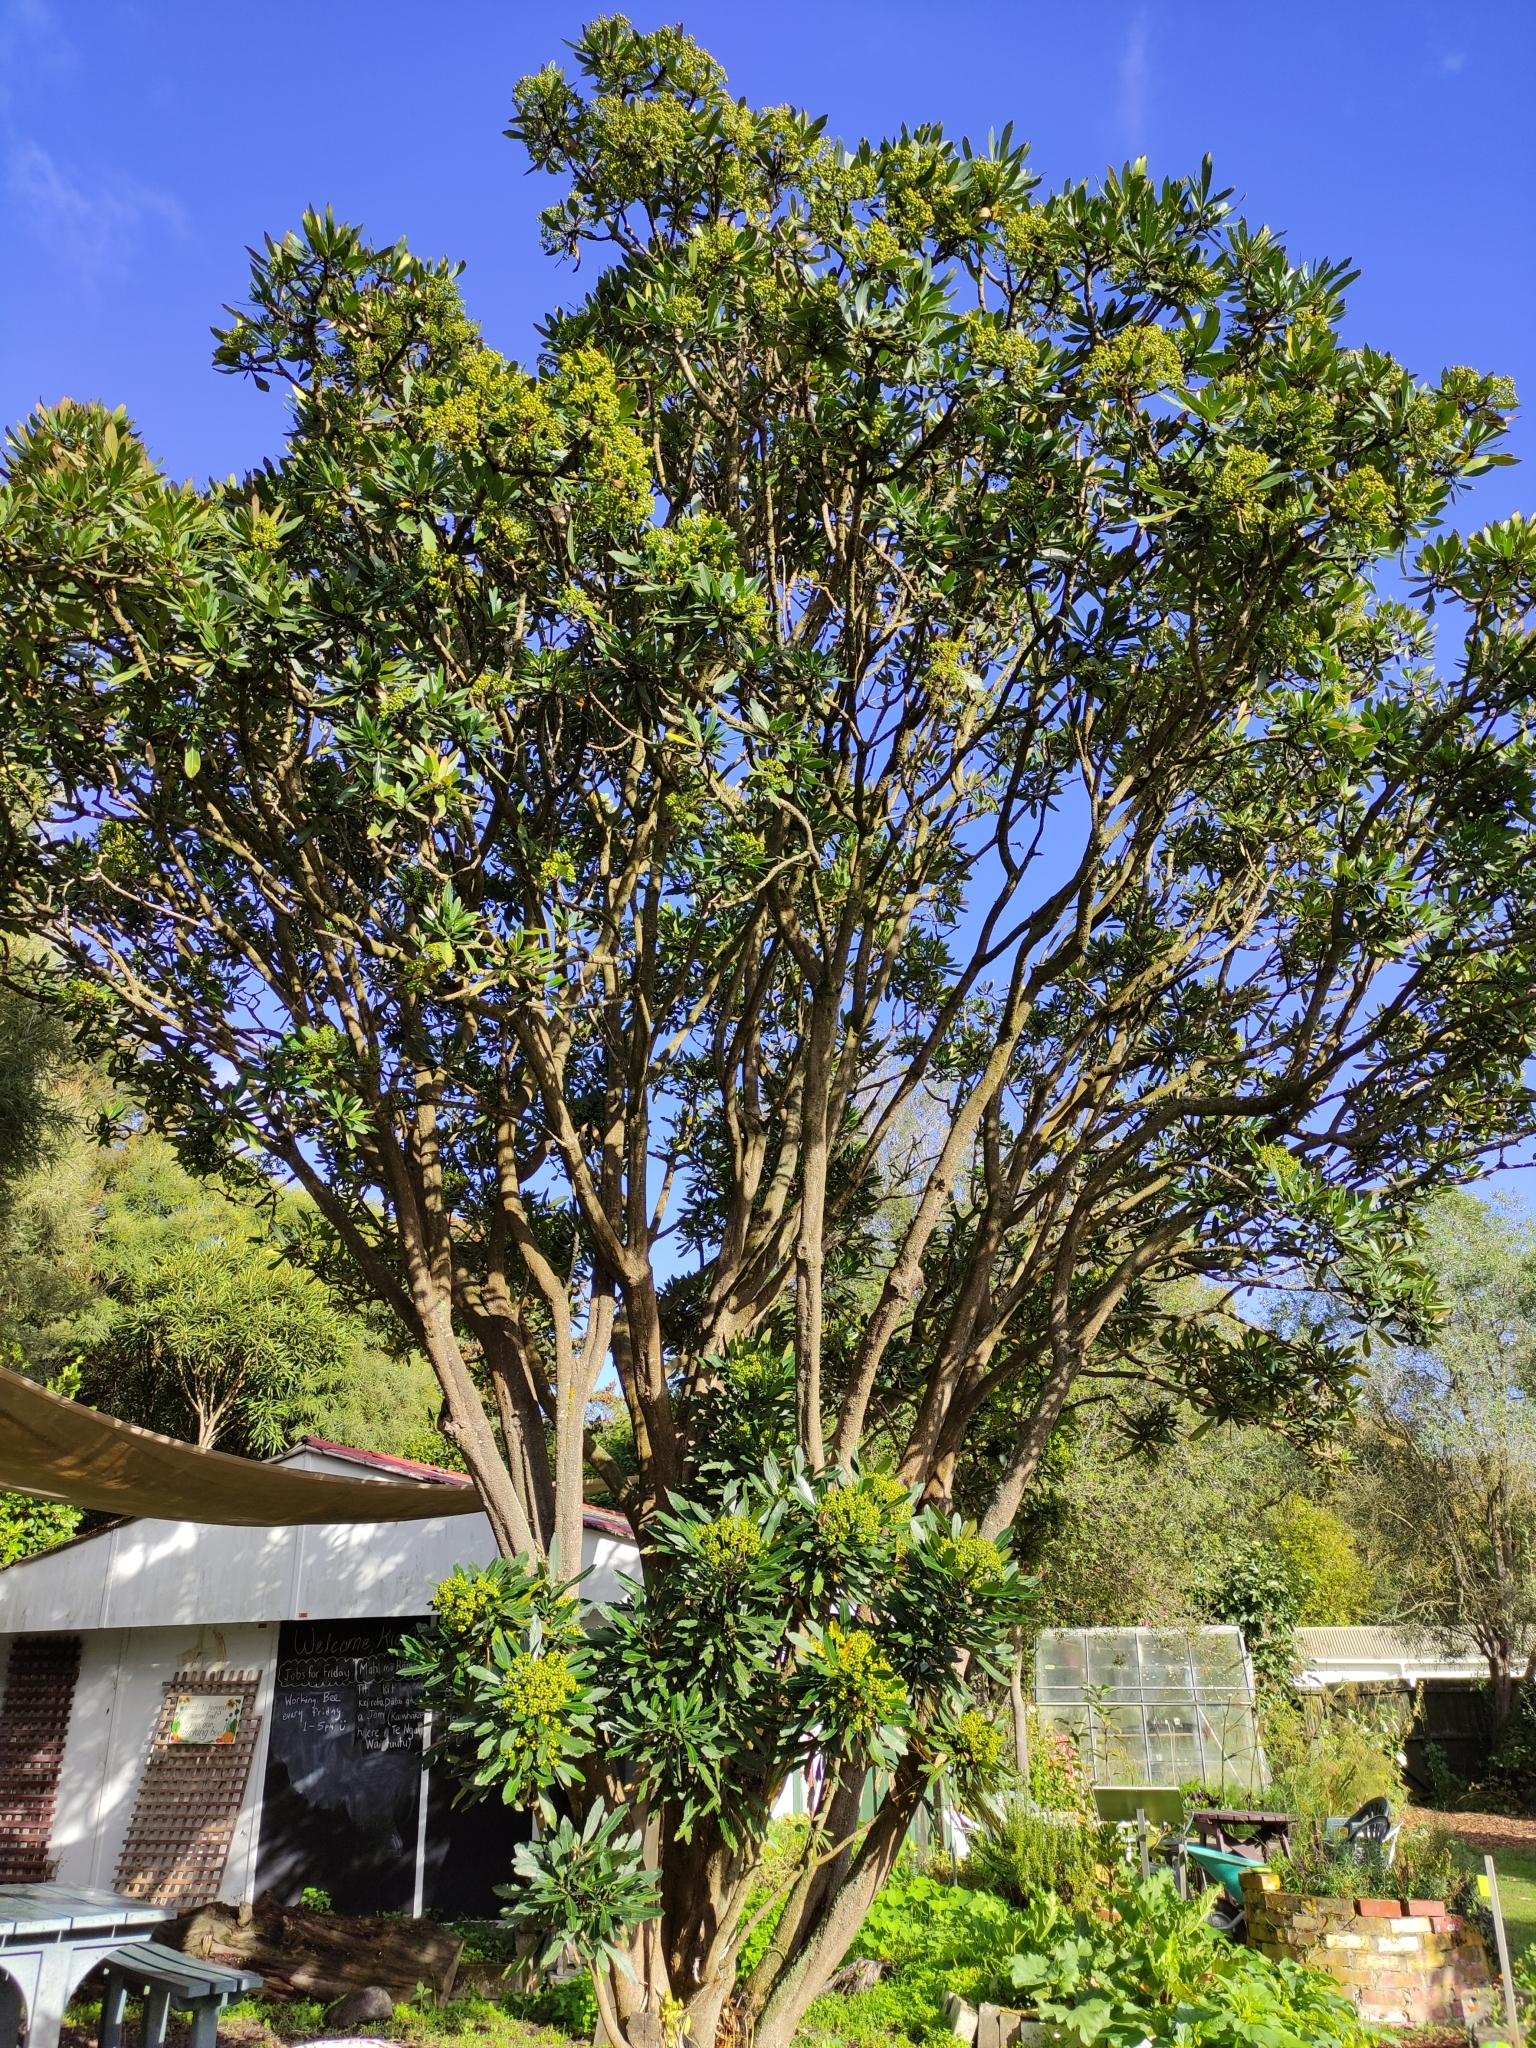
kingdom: Plantae
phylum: Tracheophyta
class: Magnoliopsida
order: Apiales
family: Araliaceae
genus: Pseudopanax
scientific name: Pseudopanax crassifolius
